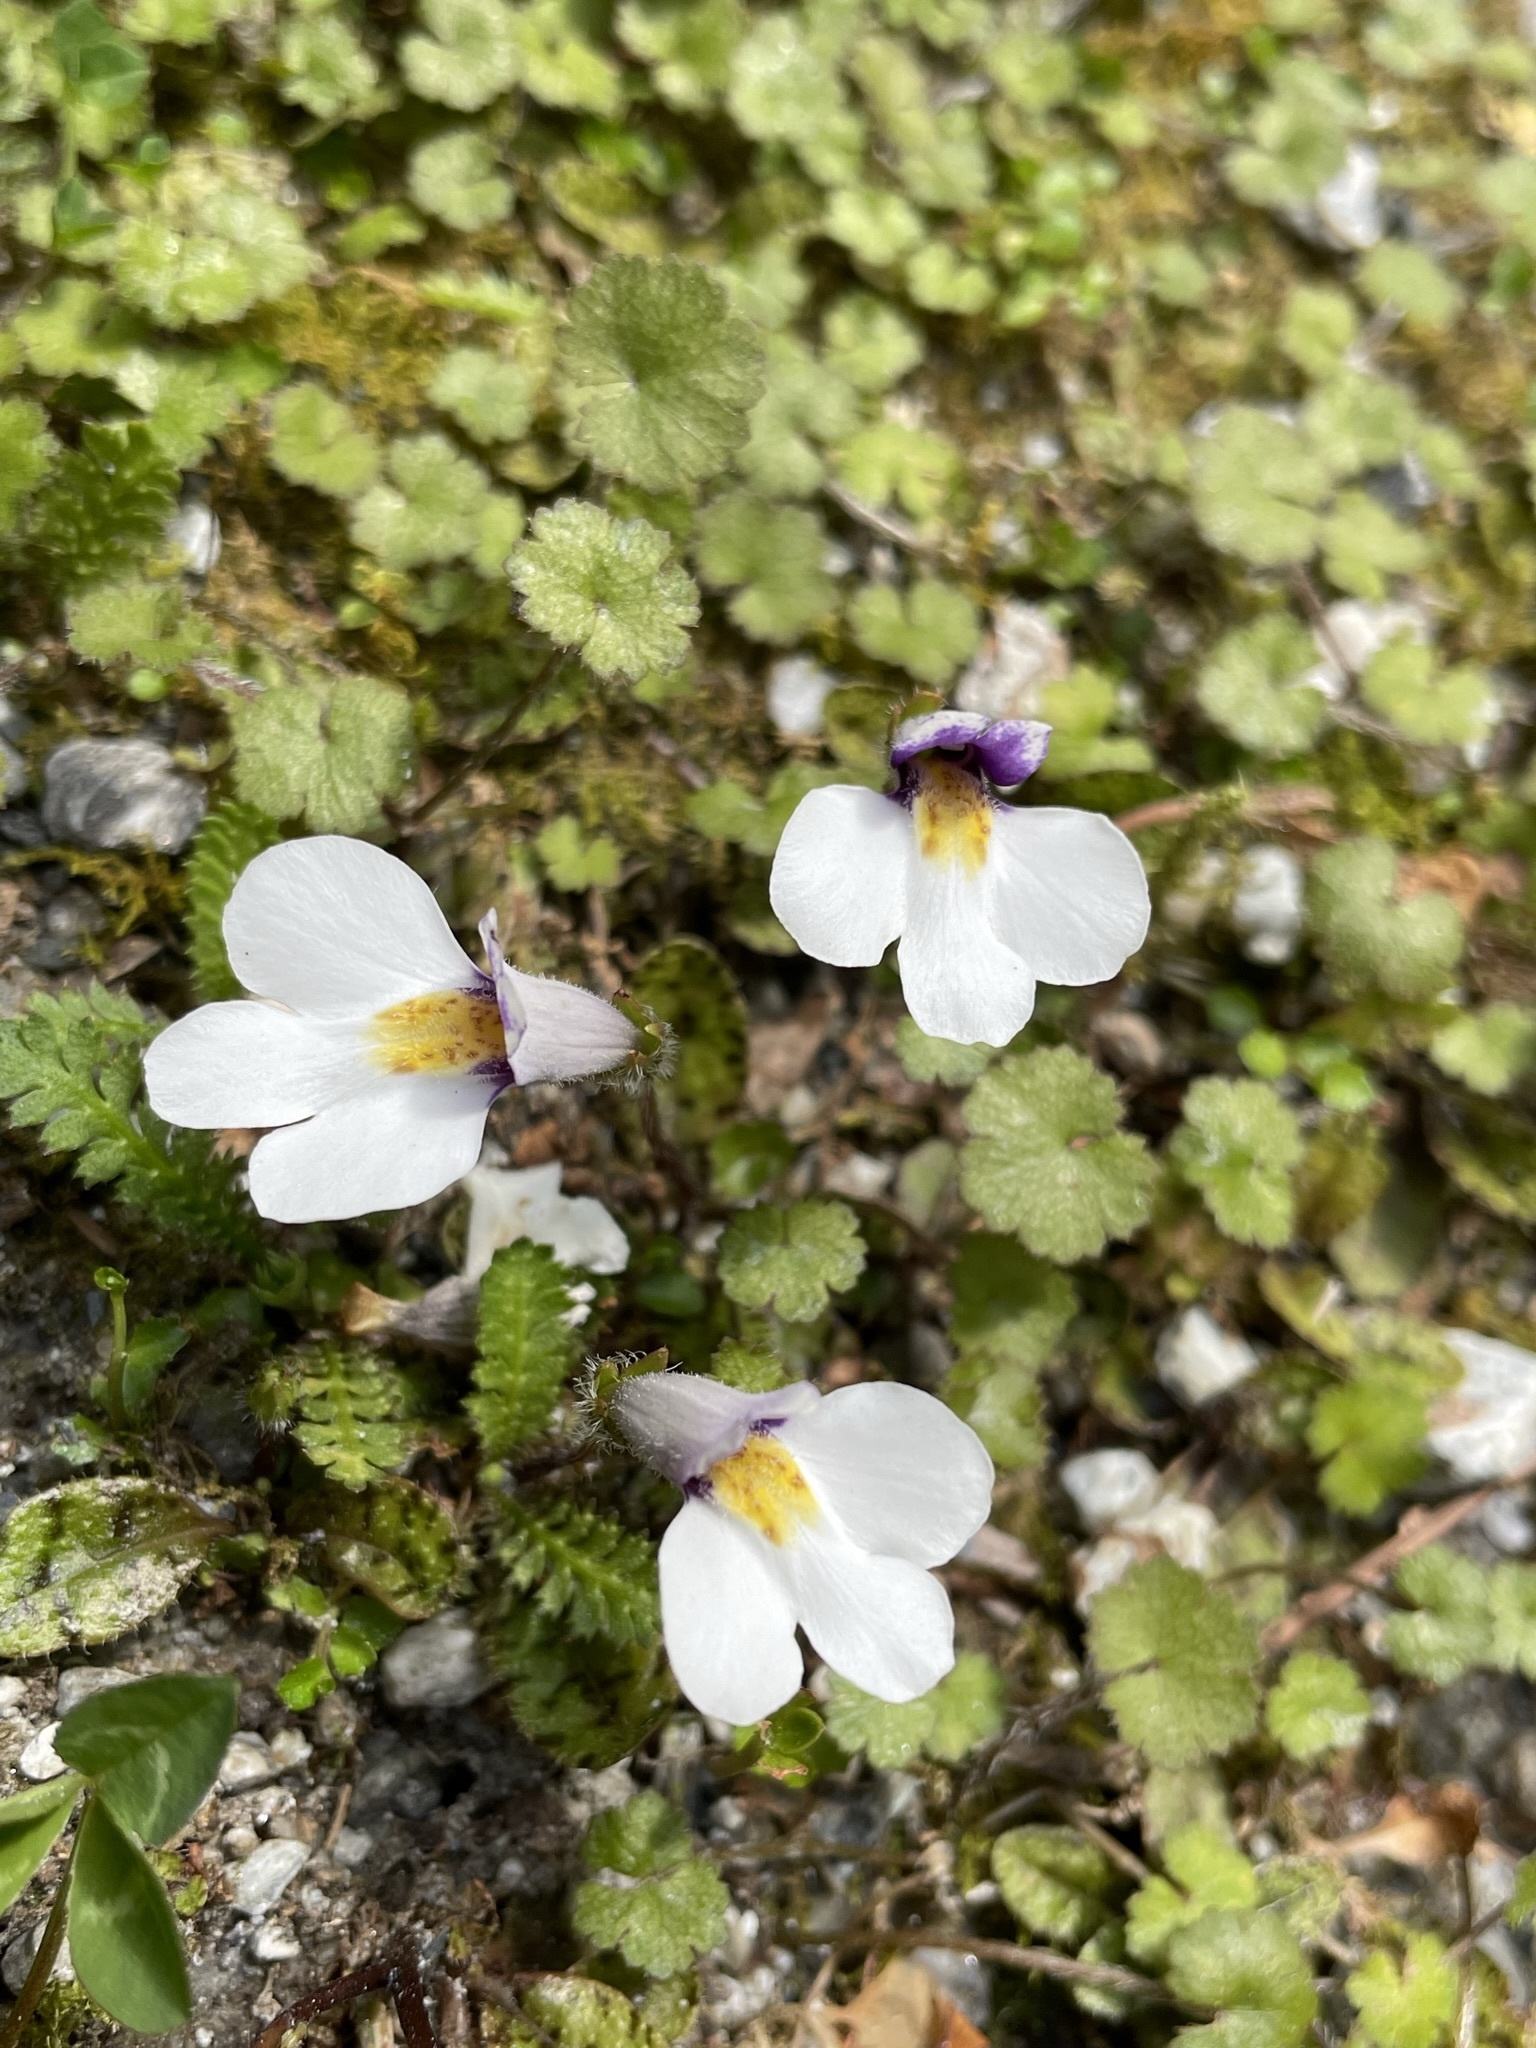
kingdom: Plantae
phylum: Tracheophyta
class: Magnoliopsida
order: Lamiales
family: Mazaceae
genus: Mazus
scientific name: Mazus radicans
